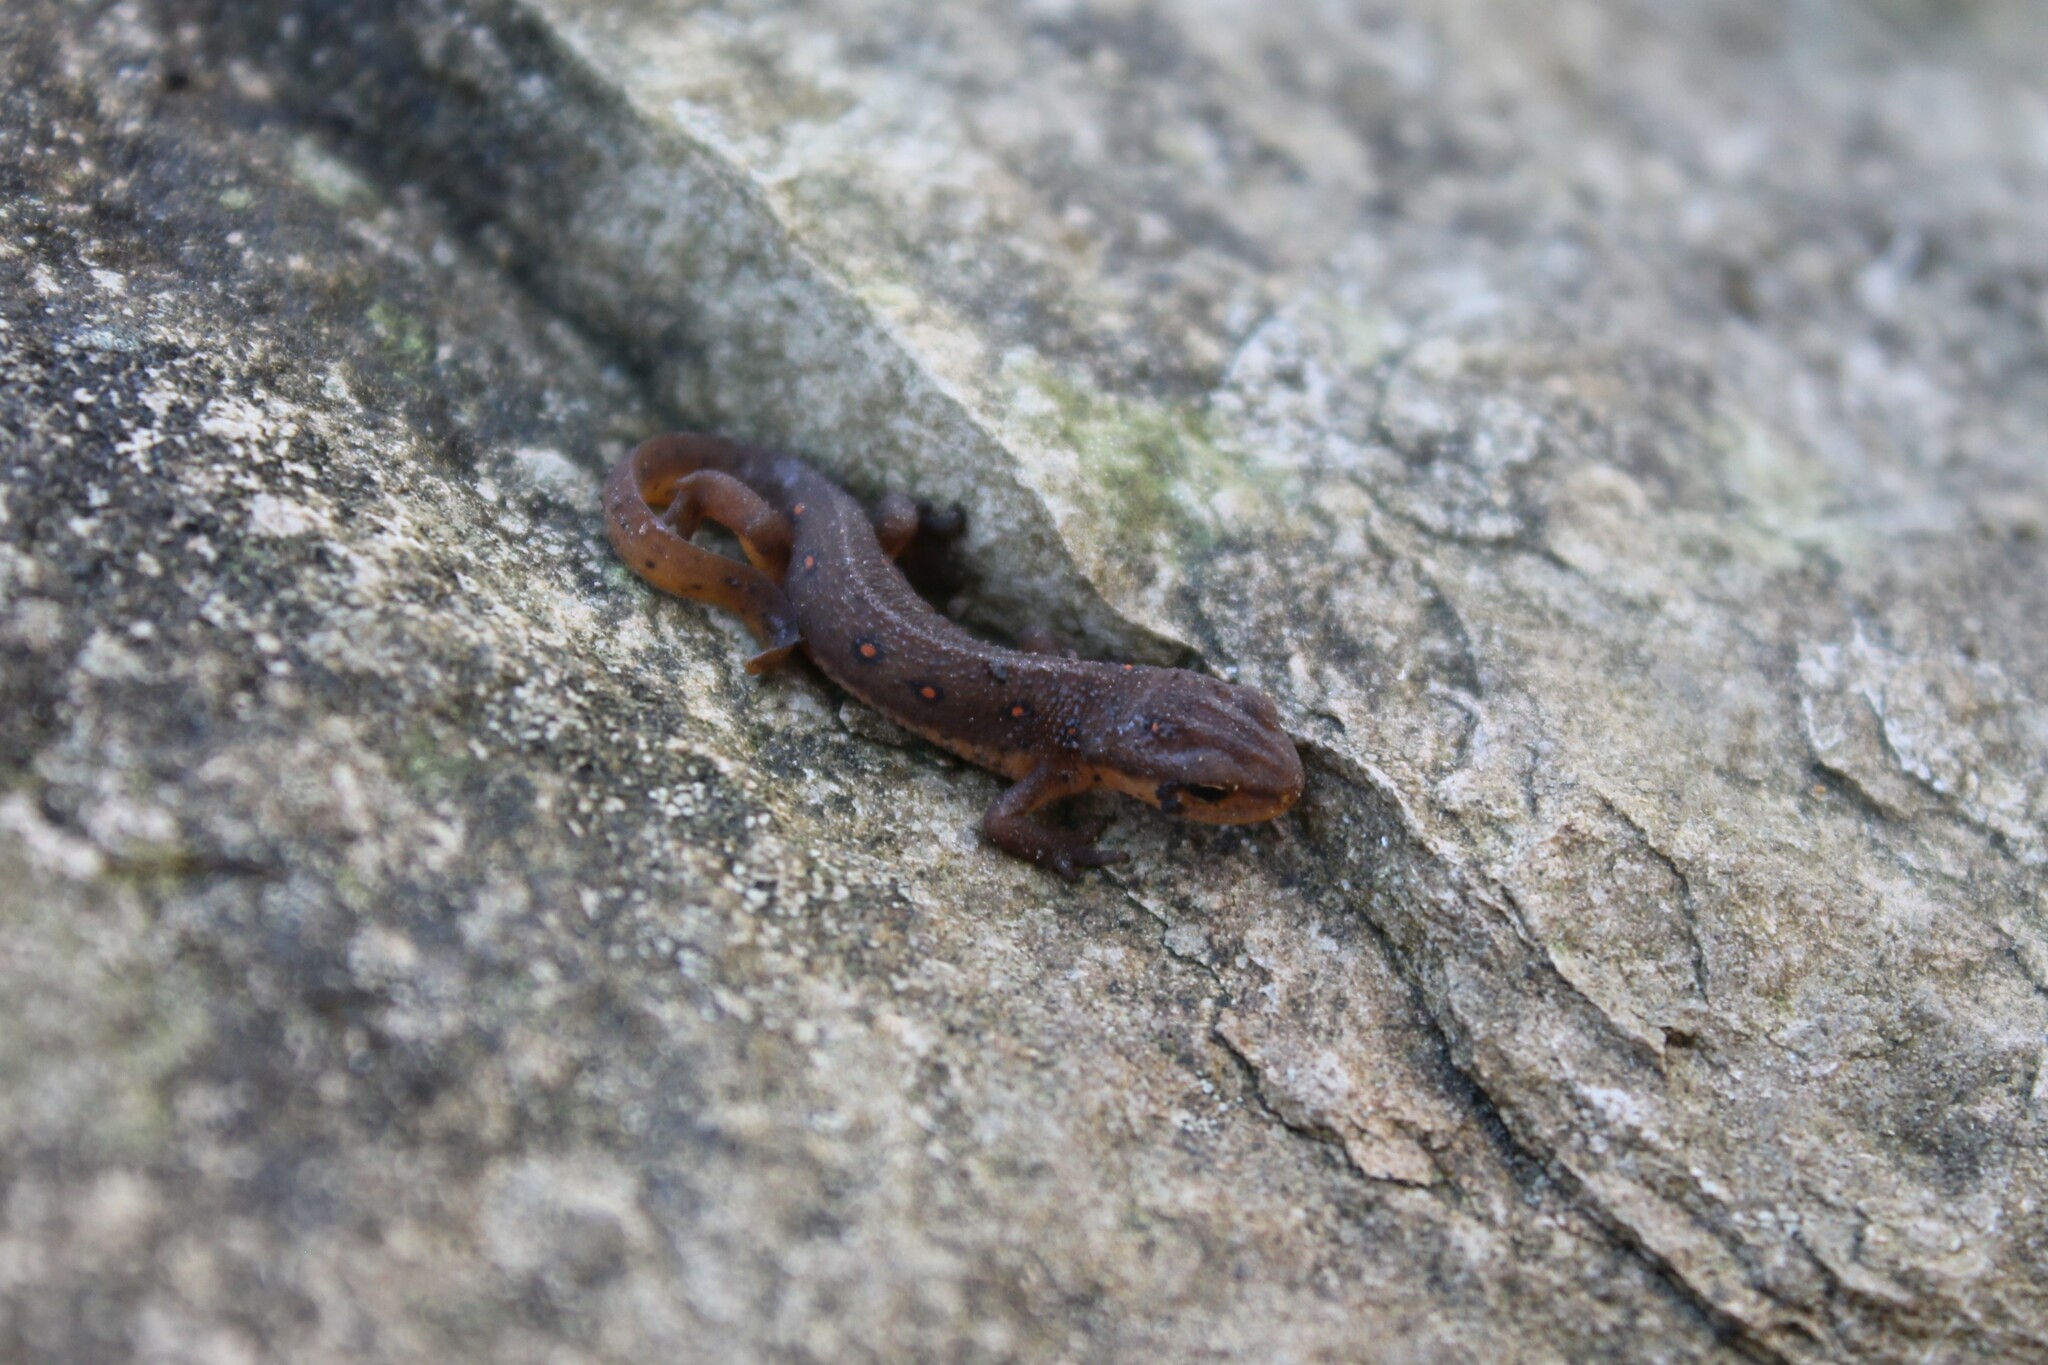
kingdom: Animalia
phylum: Chordata
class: Amphibia
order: Caudata
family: Salamandridae
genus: Notophthalmus
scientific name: Notophthalmus viridescens
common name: Eastern newt
